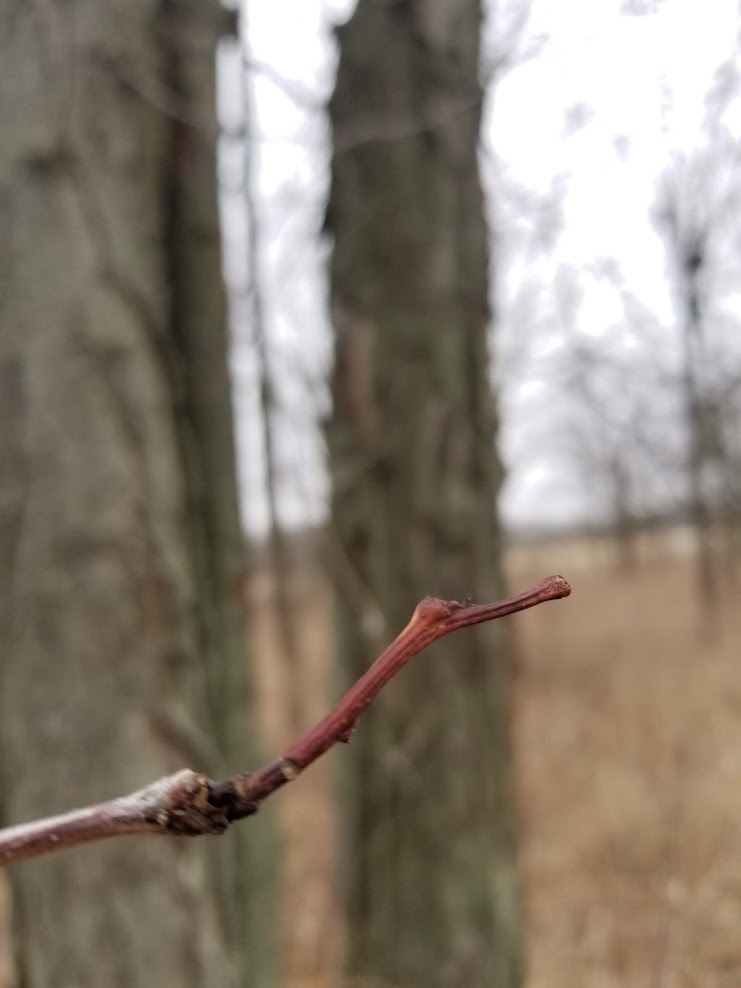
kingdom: Plantae
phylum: Tracheophyta
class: Magnoliopsida
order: Fabales
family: Fabaceae
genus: Gleditsia
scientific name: Gleditsia triacanthos
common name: Common honeylocust
